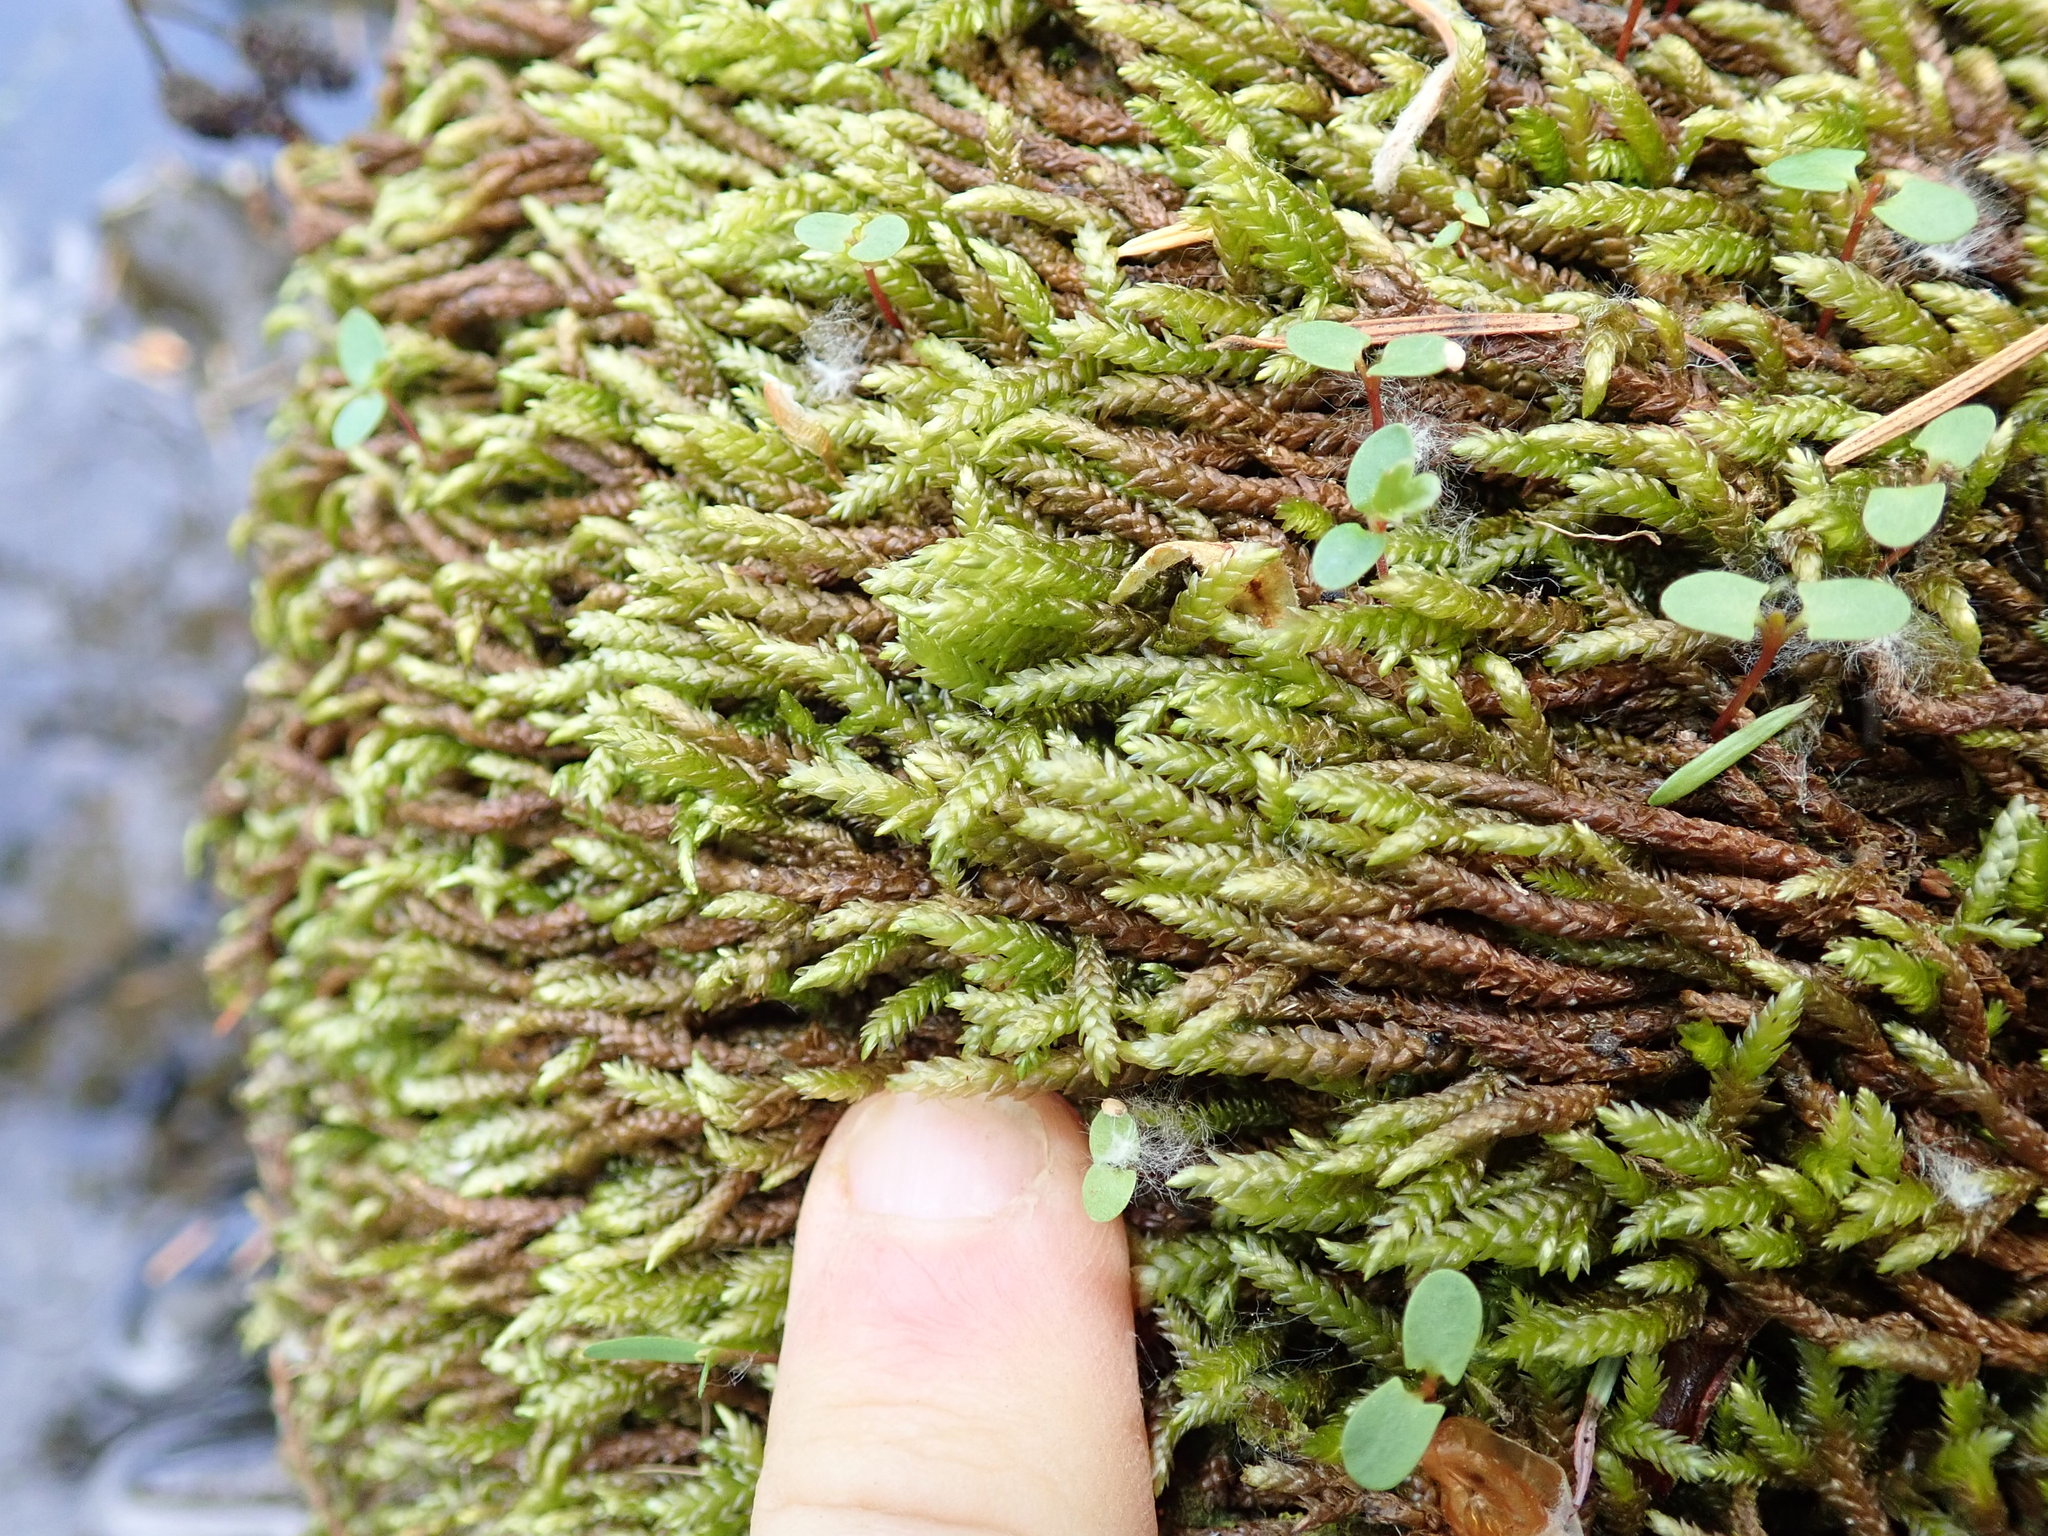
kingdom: Plantae
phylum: Bryophyta
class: Bryopsida
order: Hypnales
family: Brachytheciaceae
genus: Scleropodium
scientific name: Scleropodium obtusifolium
